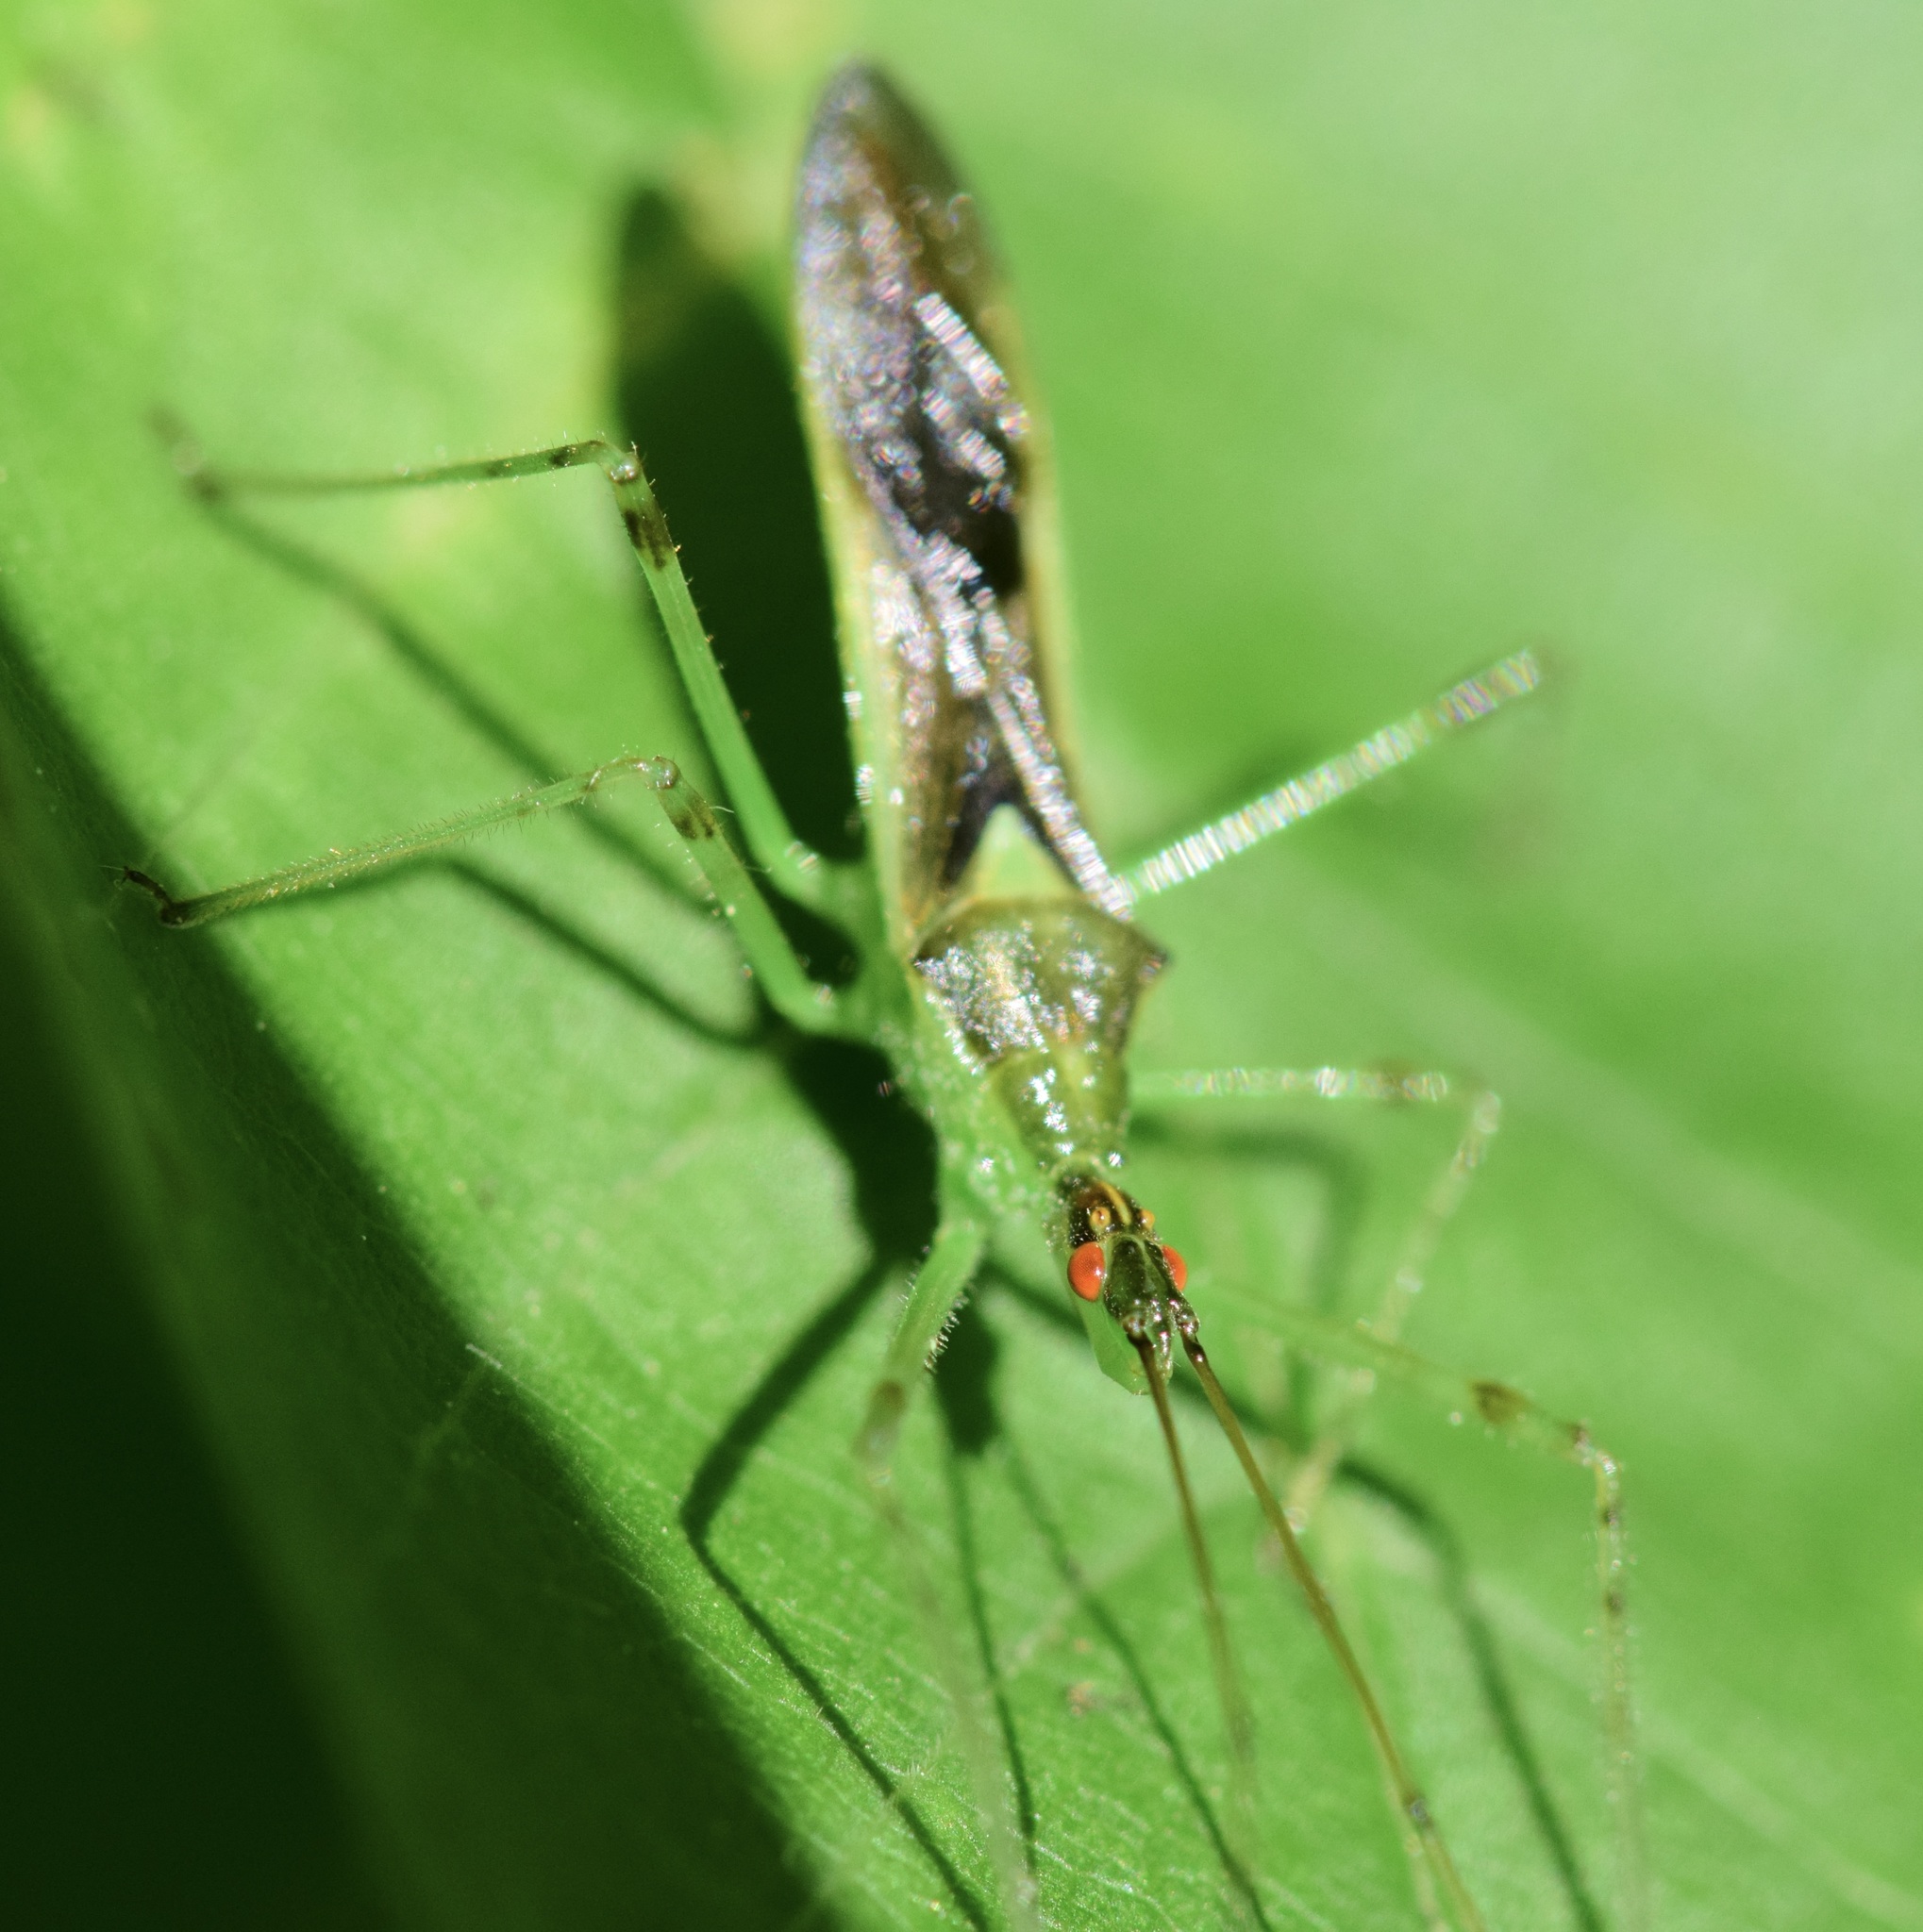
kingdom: Animalia
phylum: Arthropoda
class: Insecta
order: Hemiptera
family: Reduviidae
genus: Zelus
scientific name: Zelus luridus
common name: Pale green assassin bug
